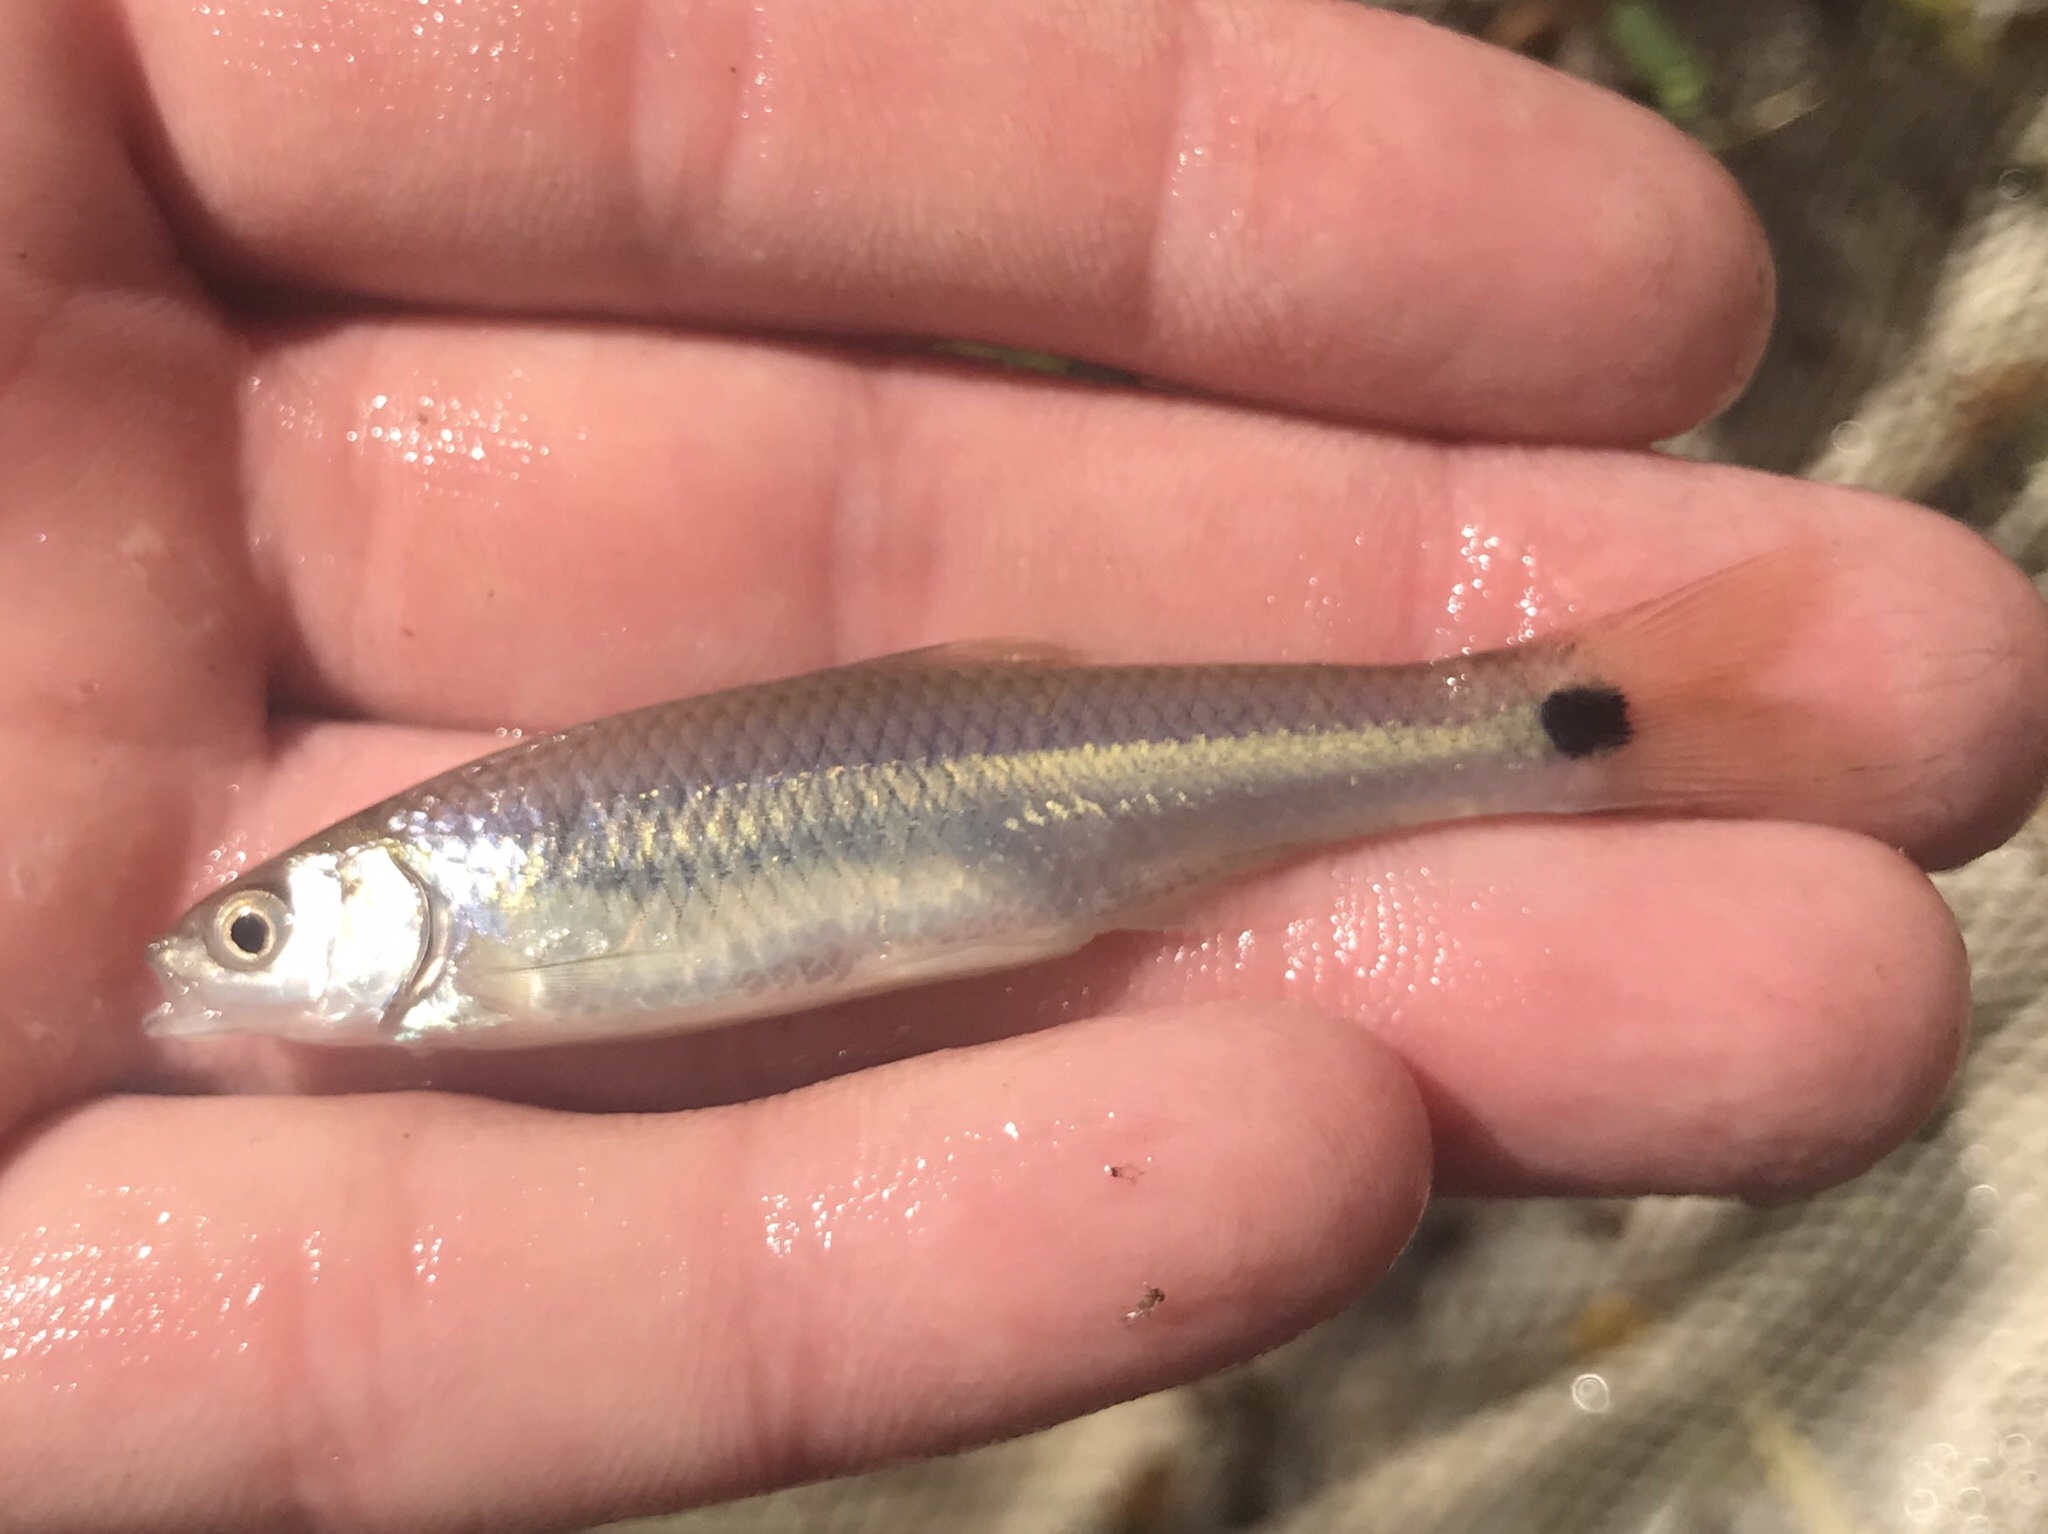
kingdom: Animalia
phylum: Chordata
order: Cypriniformes
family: Cyprinidae
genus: Cyprinella
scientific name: Cyprinella venusta
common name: Blacktail shiner
